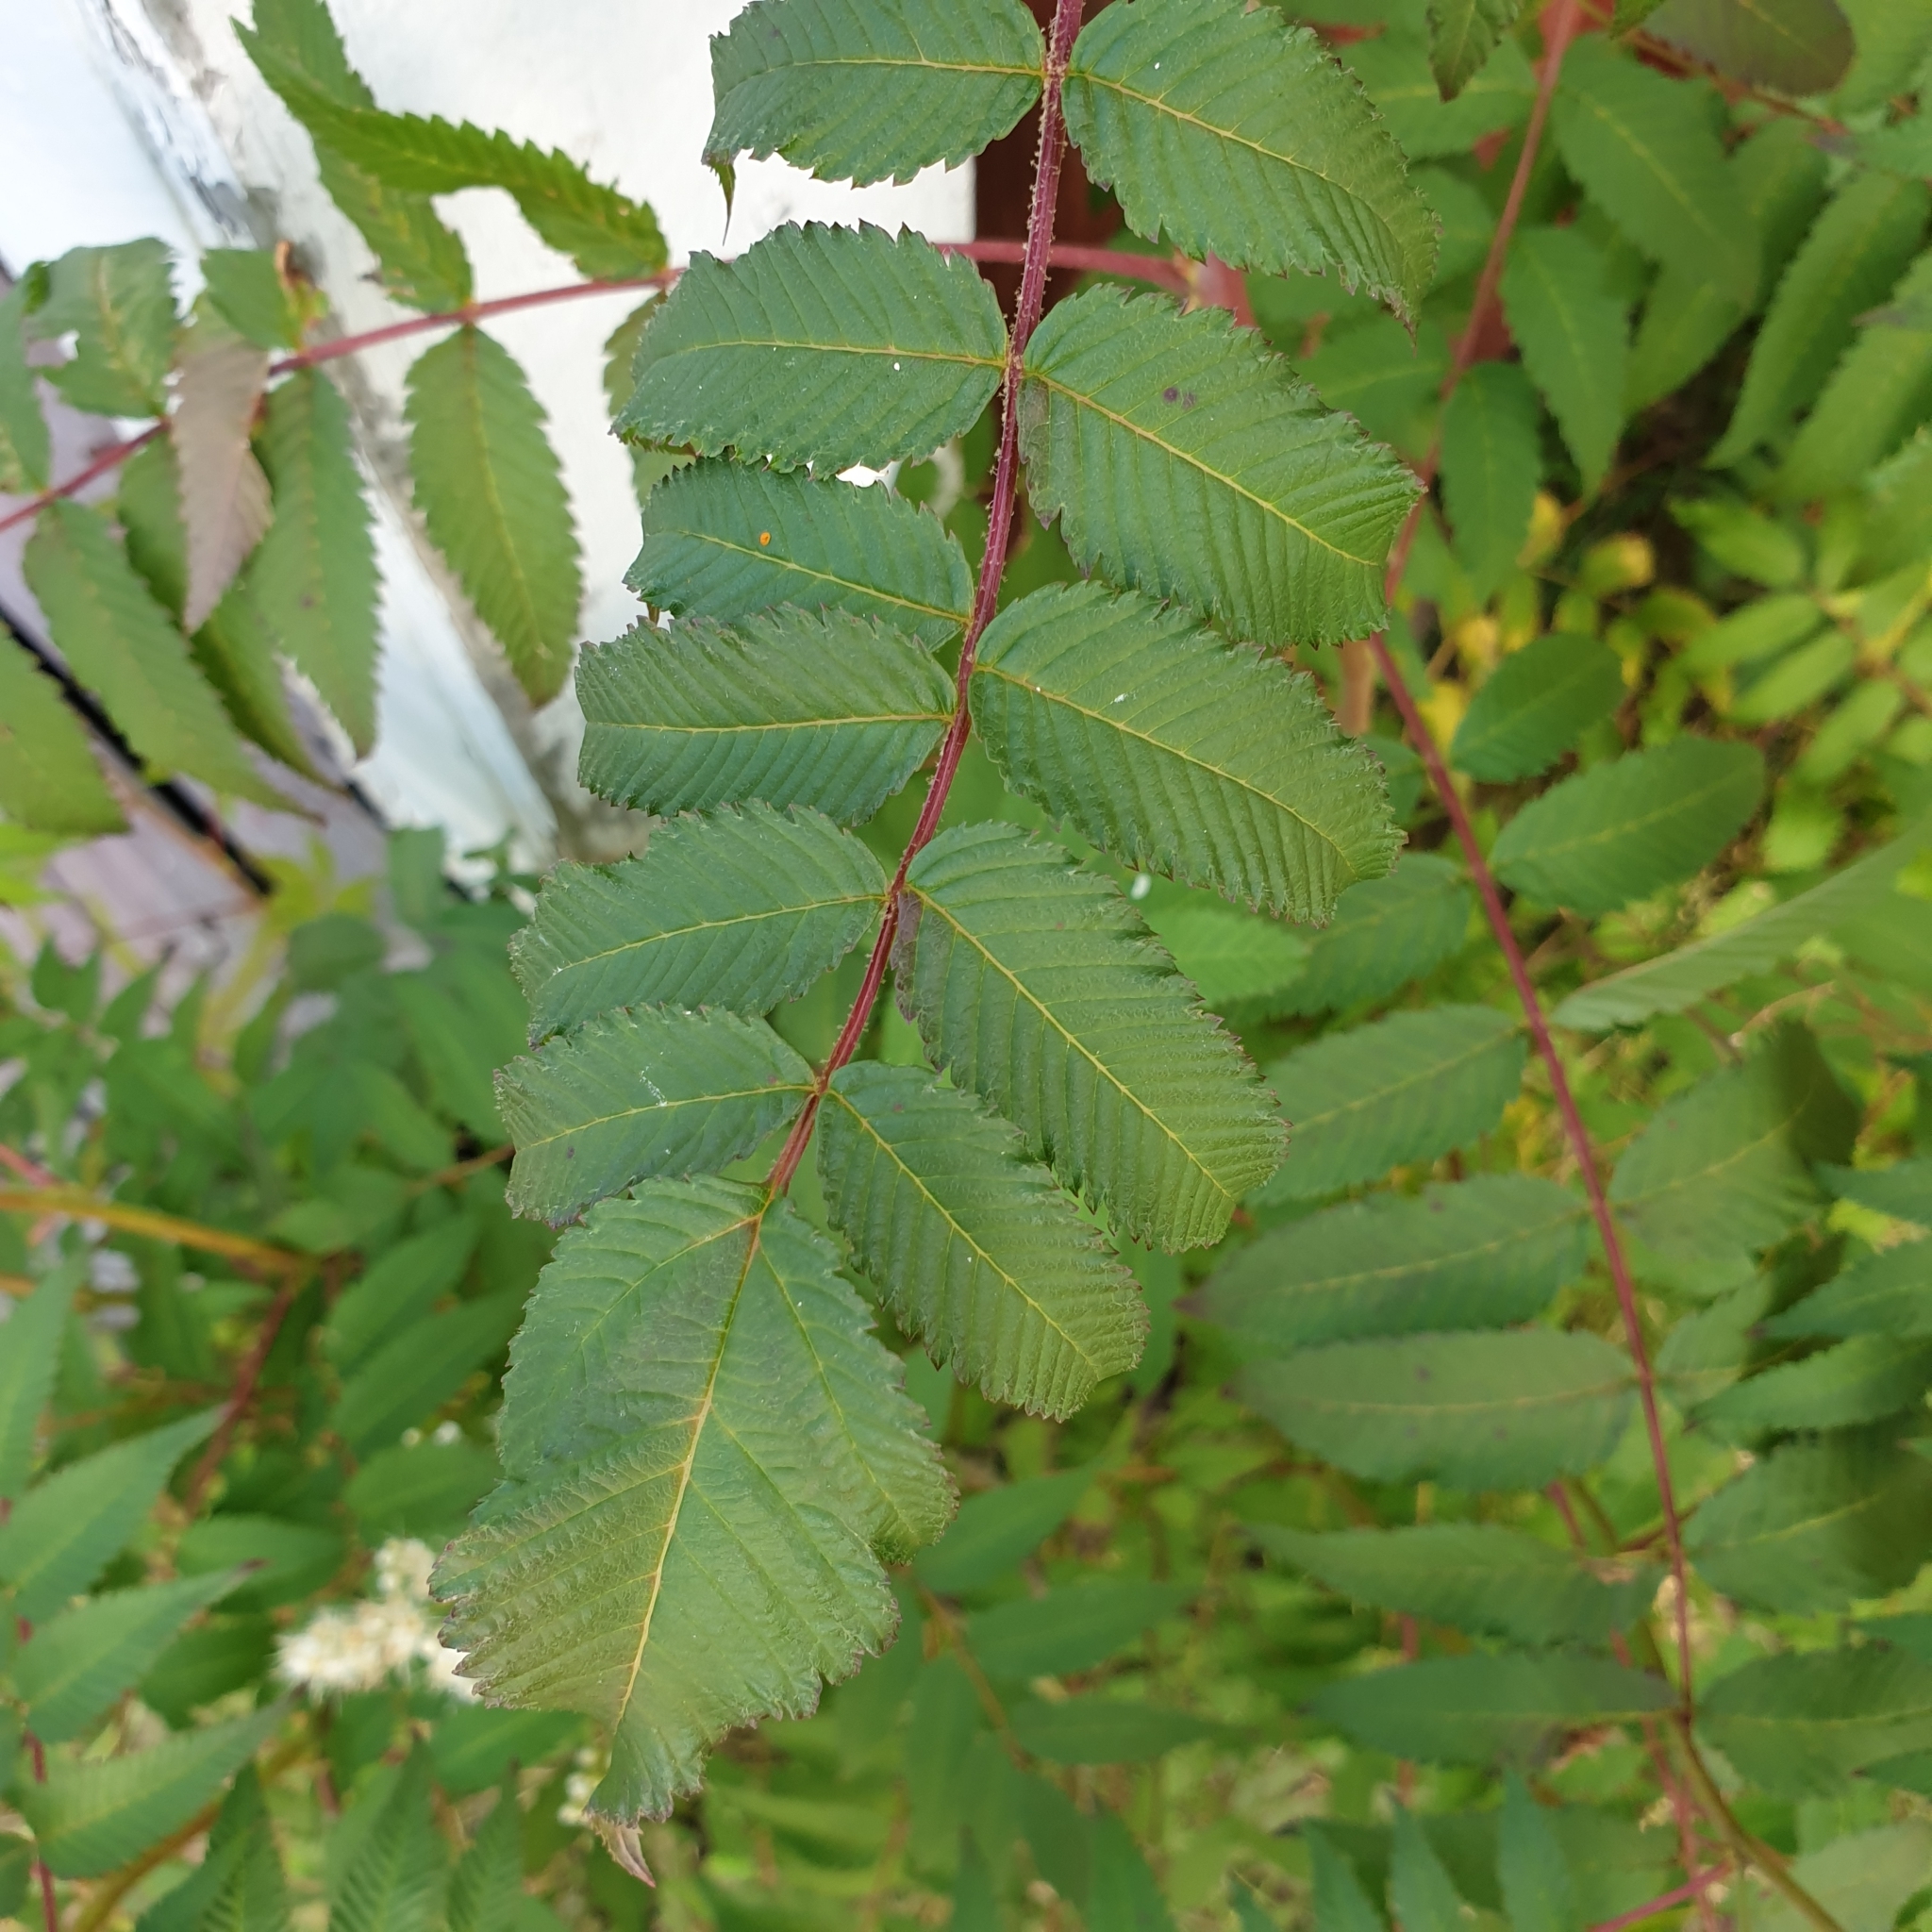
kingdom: Plantae
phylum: Tracheophyta
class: Magnoliopsida
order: Rosales
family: Rosaceae
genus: Sorbaria
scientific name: Sorbaria sorbifolia
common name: False spiraea
